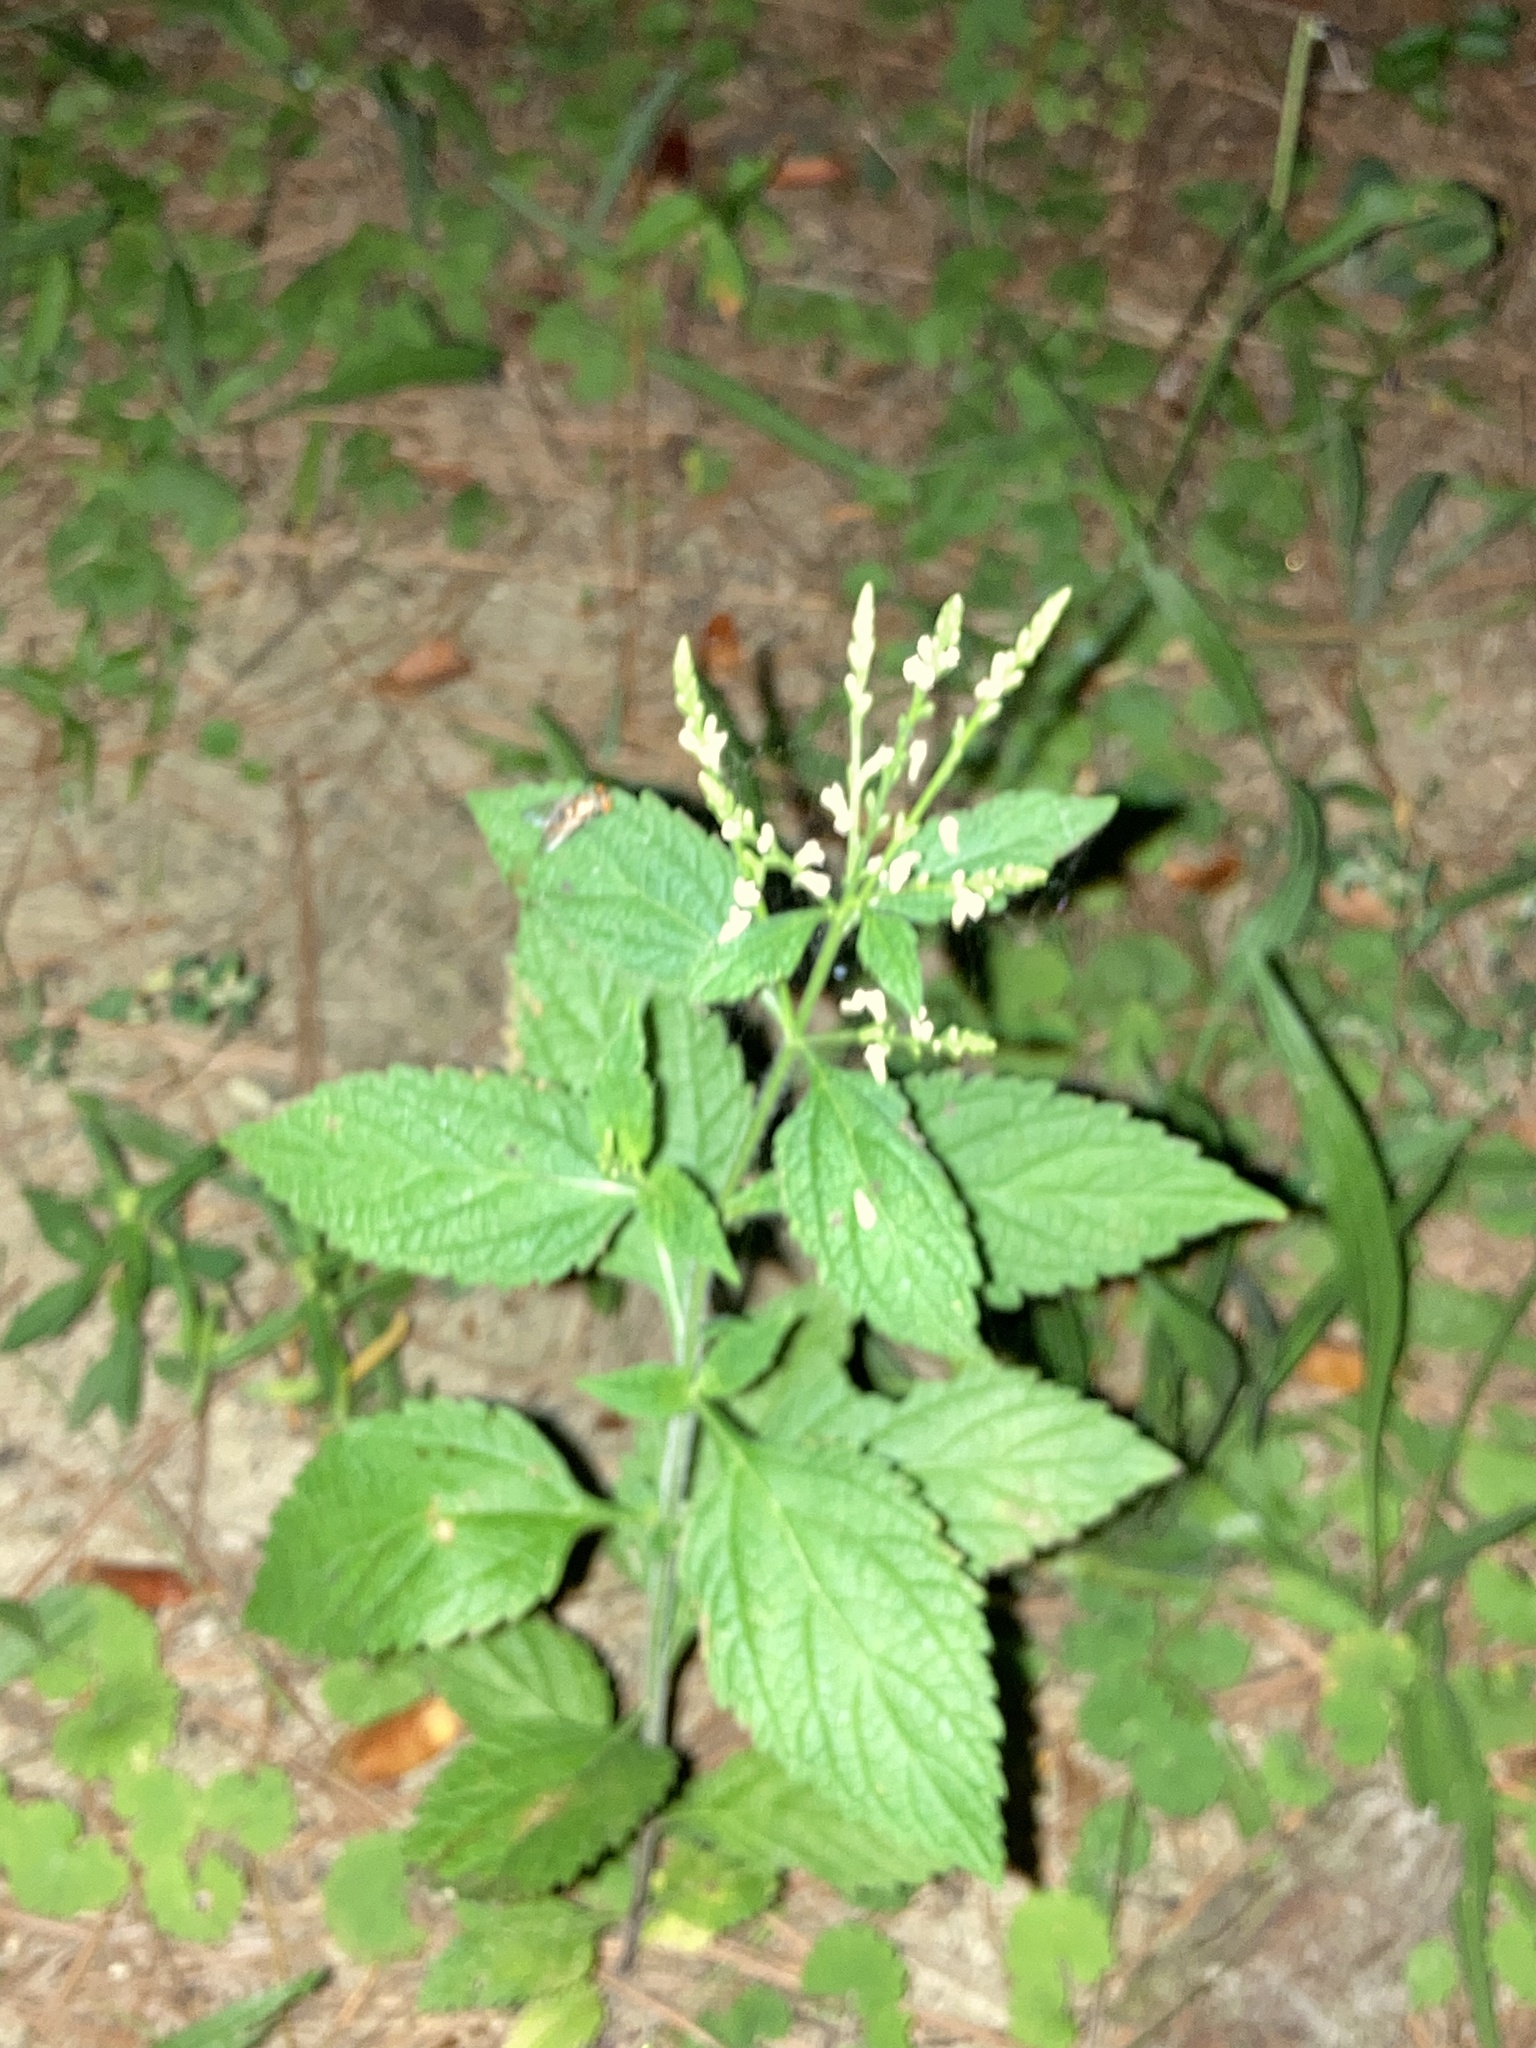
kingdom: Plantae
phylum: Tracheophyta
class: Magnoliopsida
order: Lamiales
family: Verbenaceae
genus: Verbena
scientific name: Verbena urticifolia
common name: Nettle-leaved vervain
